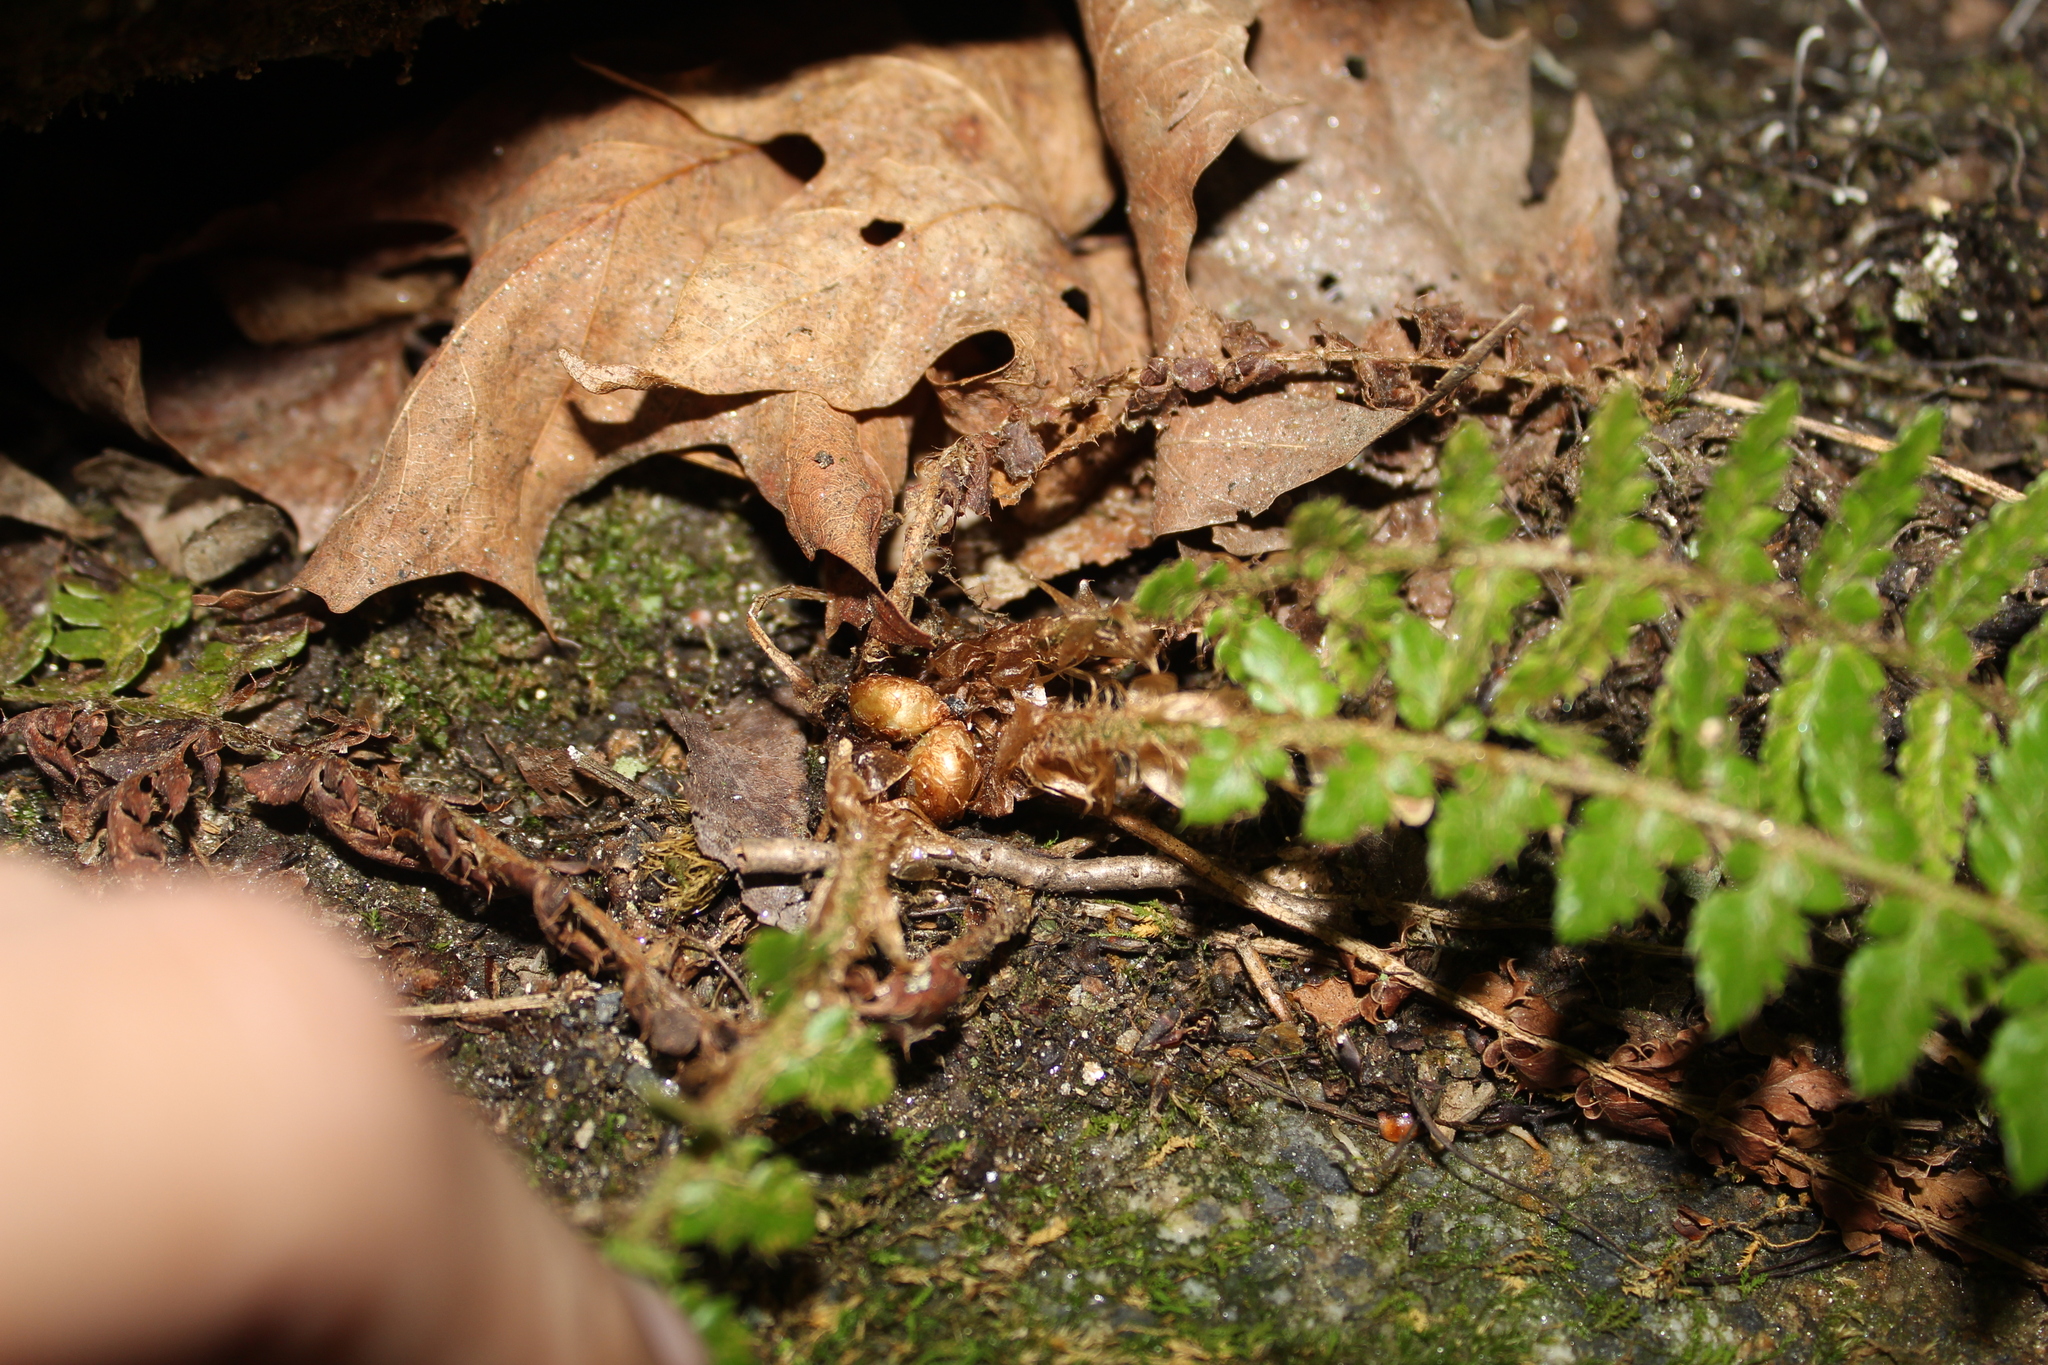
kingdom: Plantae
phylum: Tracheophyta
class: Polypodiopsida
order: Polypodiales
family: Dryopteridaceae
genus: Polystichum
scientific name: Polystichum braunii
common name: Braun's holly fern
